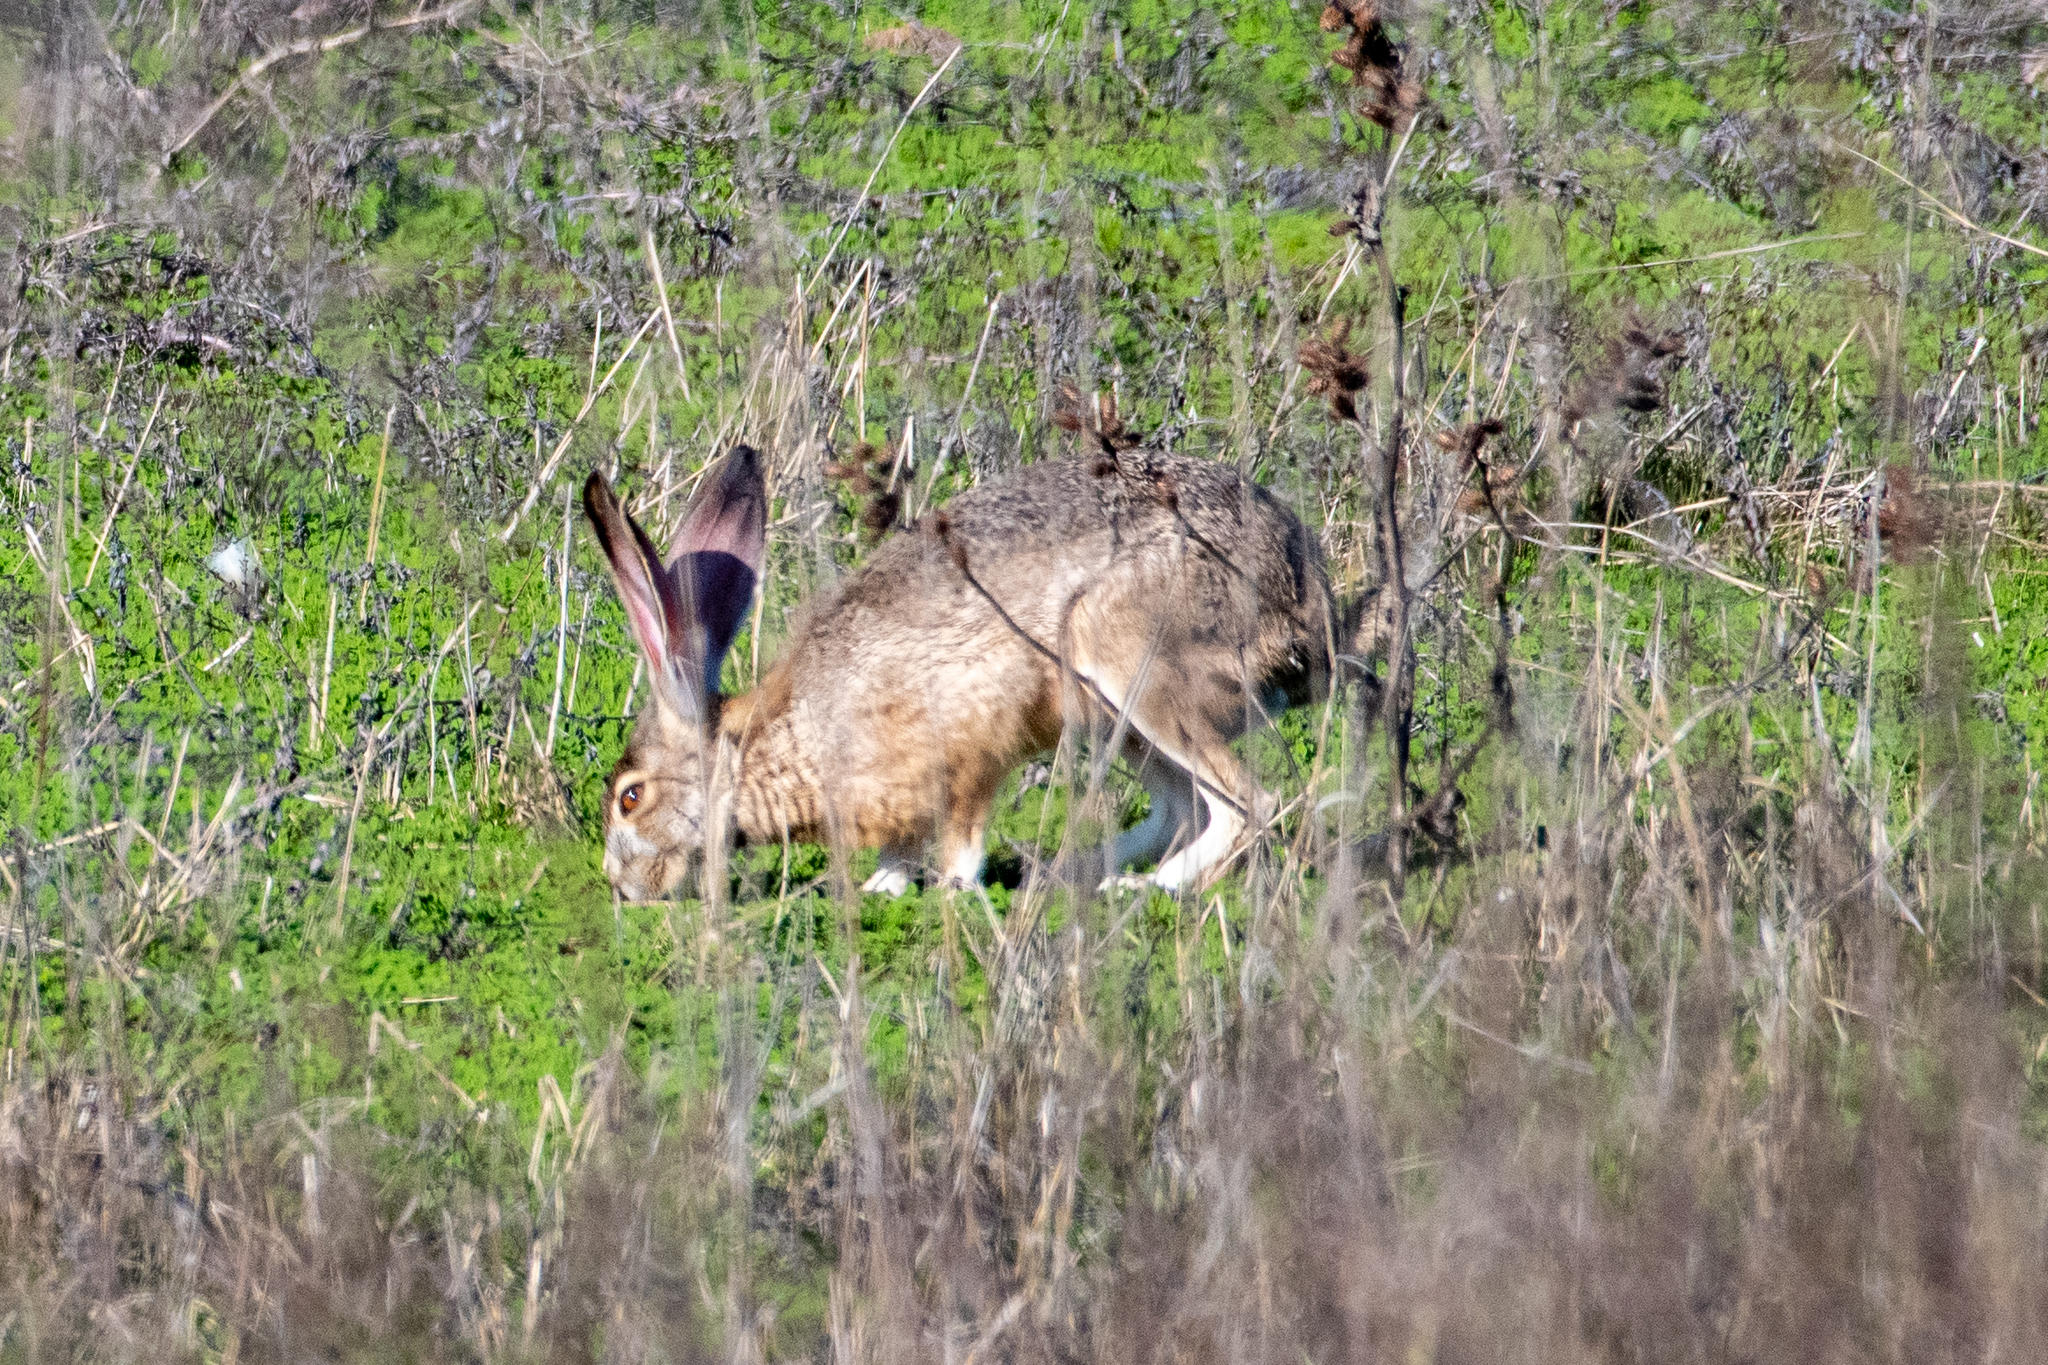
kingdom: Animalia
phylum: Chordata
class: Mammalia
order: Lagomorpha
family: Leporidae
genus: Lepus
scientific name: Lepus californicus
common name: Black-tailed jackrabbit
